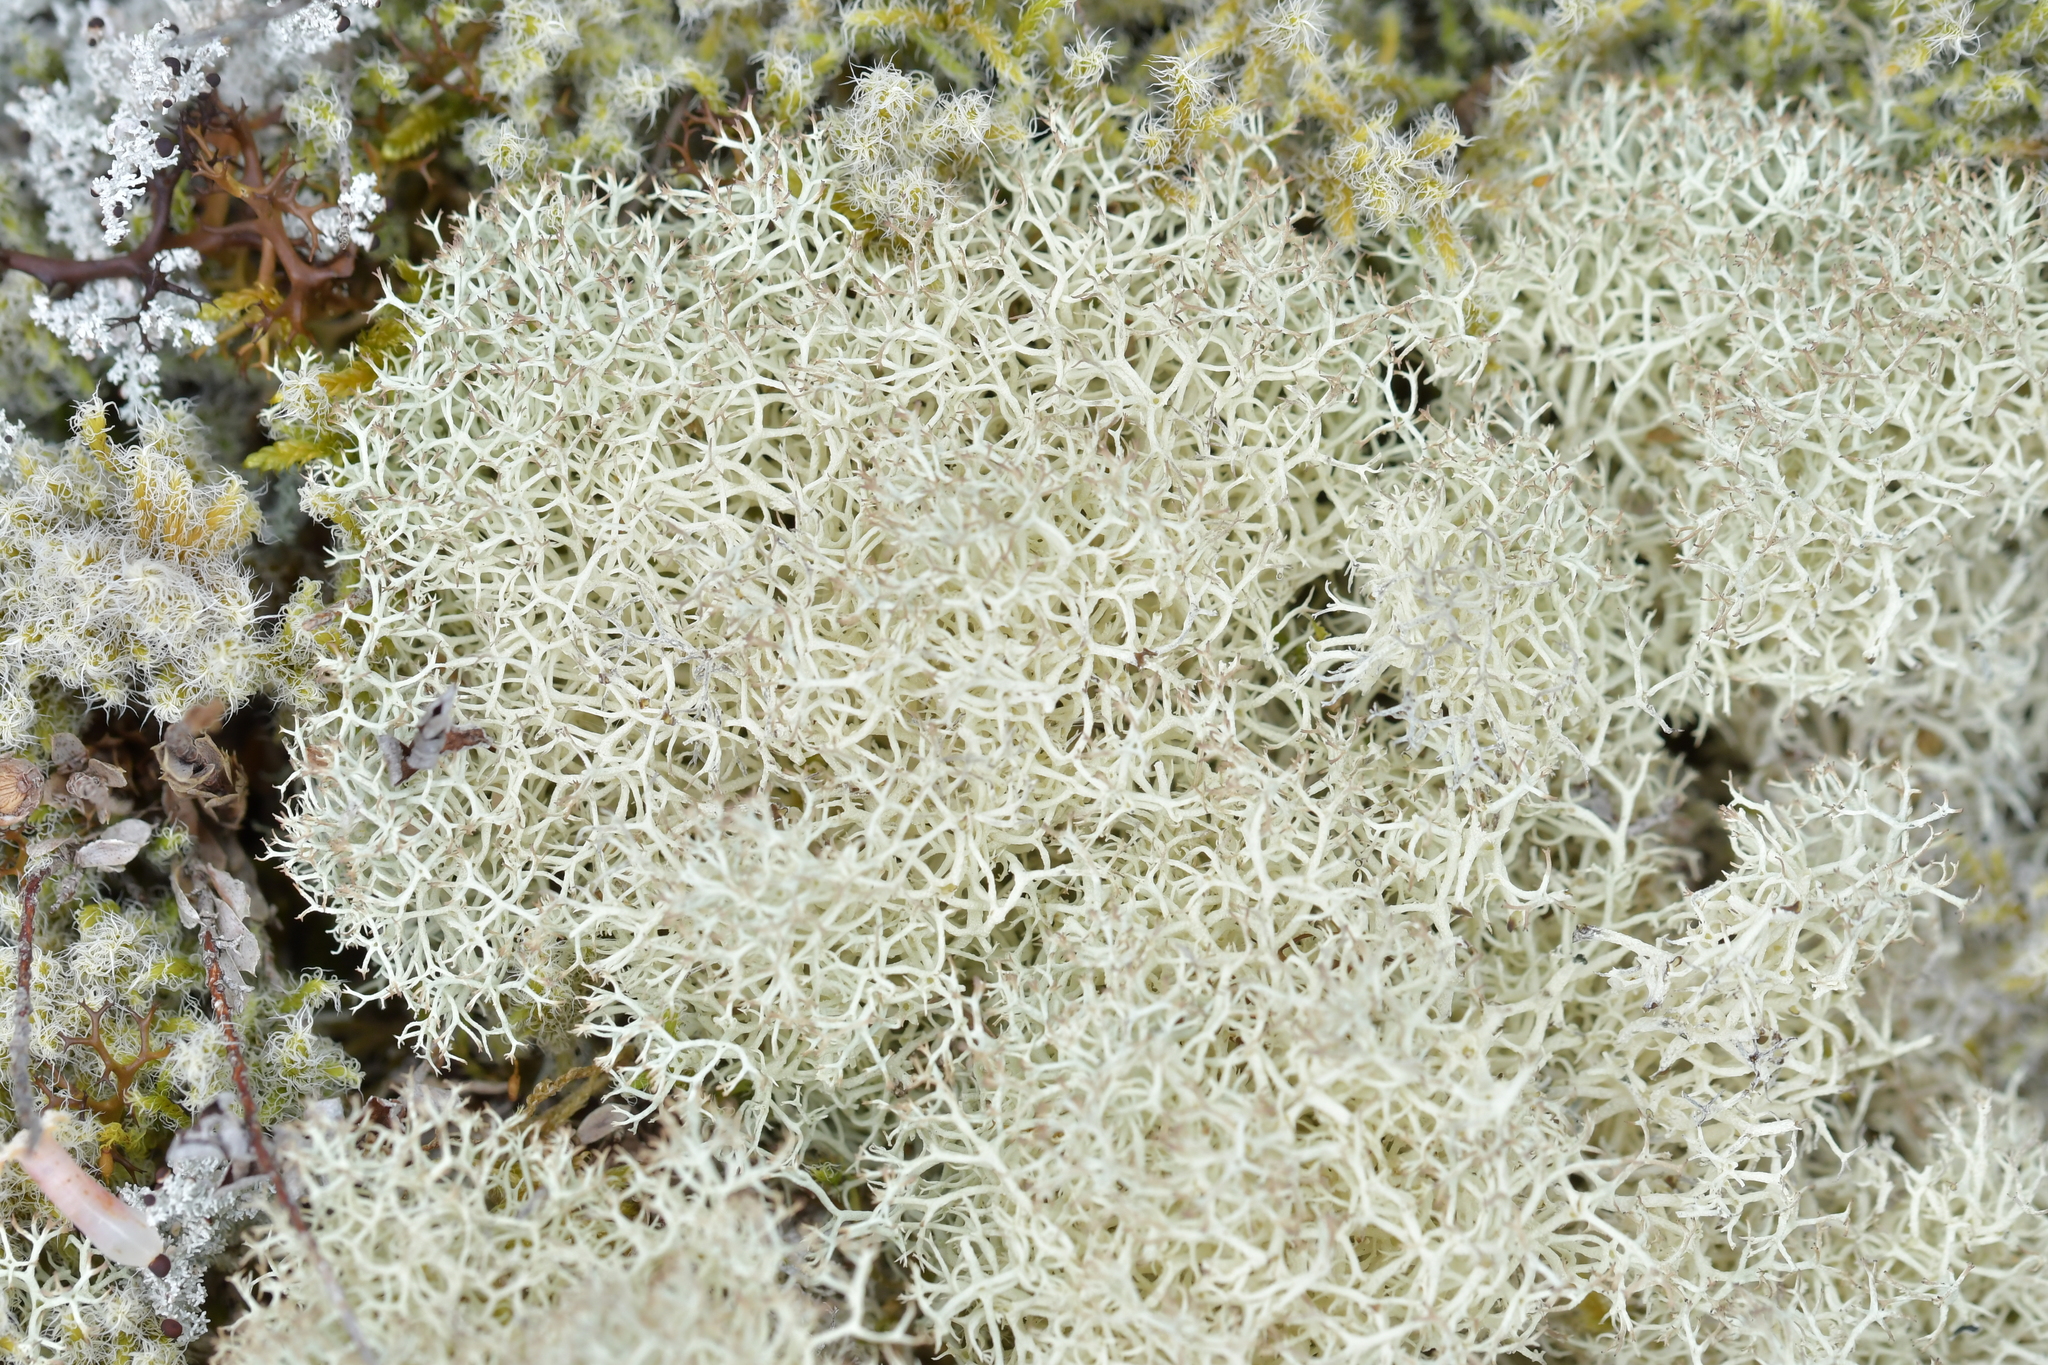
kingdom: Fungi
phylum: Ascomycota
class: Lecanoromycetes
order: Lecanorales
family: Cladoniaceae
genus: Cladonia
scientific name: Cladonia confusa
